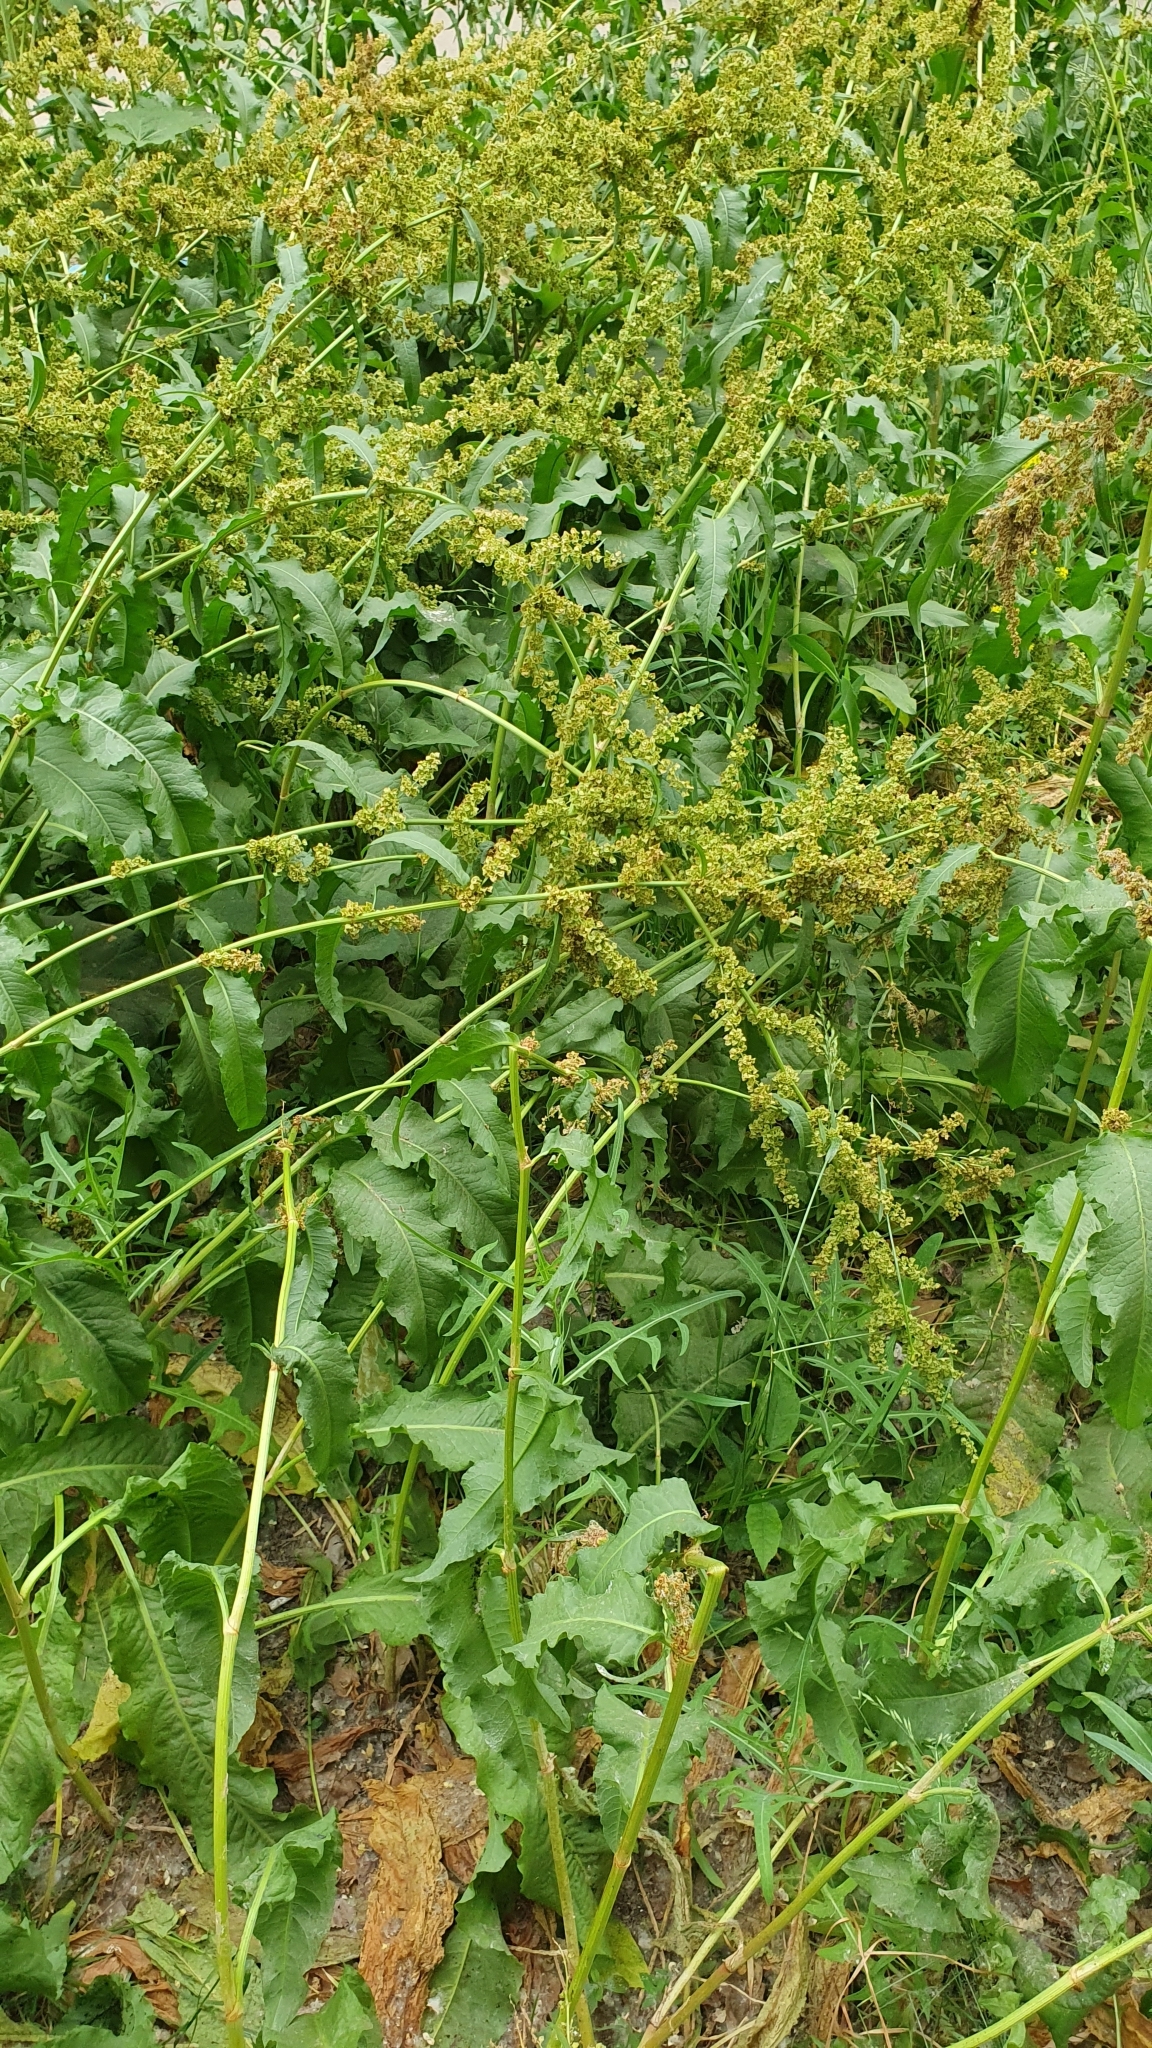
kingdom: Plantae
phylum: Tracheophyta
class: Magnoliopsida
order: Caryophyllales
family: Polygonaceae
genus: Rumex
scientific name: Rumex crispus
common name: Curled dock
